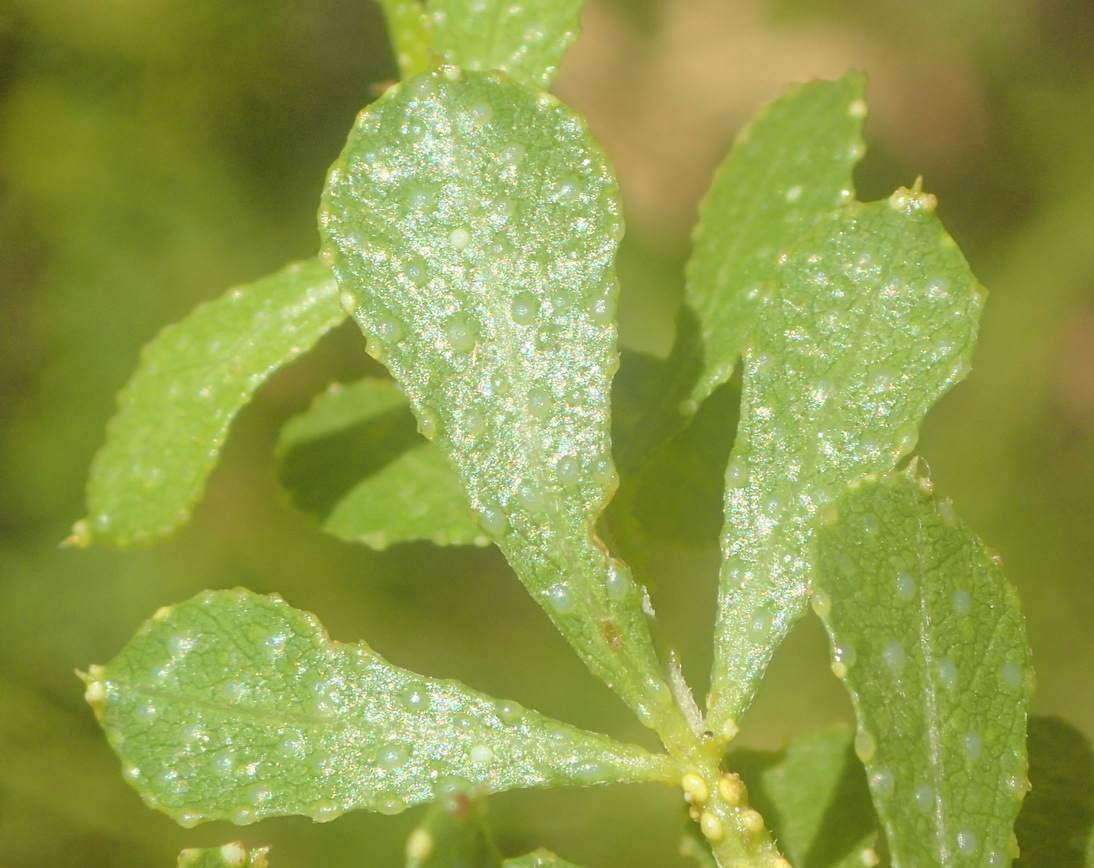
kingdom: Plantae
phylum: Tracheophyta
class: Magnoliopsida
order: Fabales
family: Fabaceae
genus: Psoralea
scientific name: Psoralea lucens
